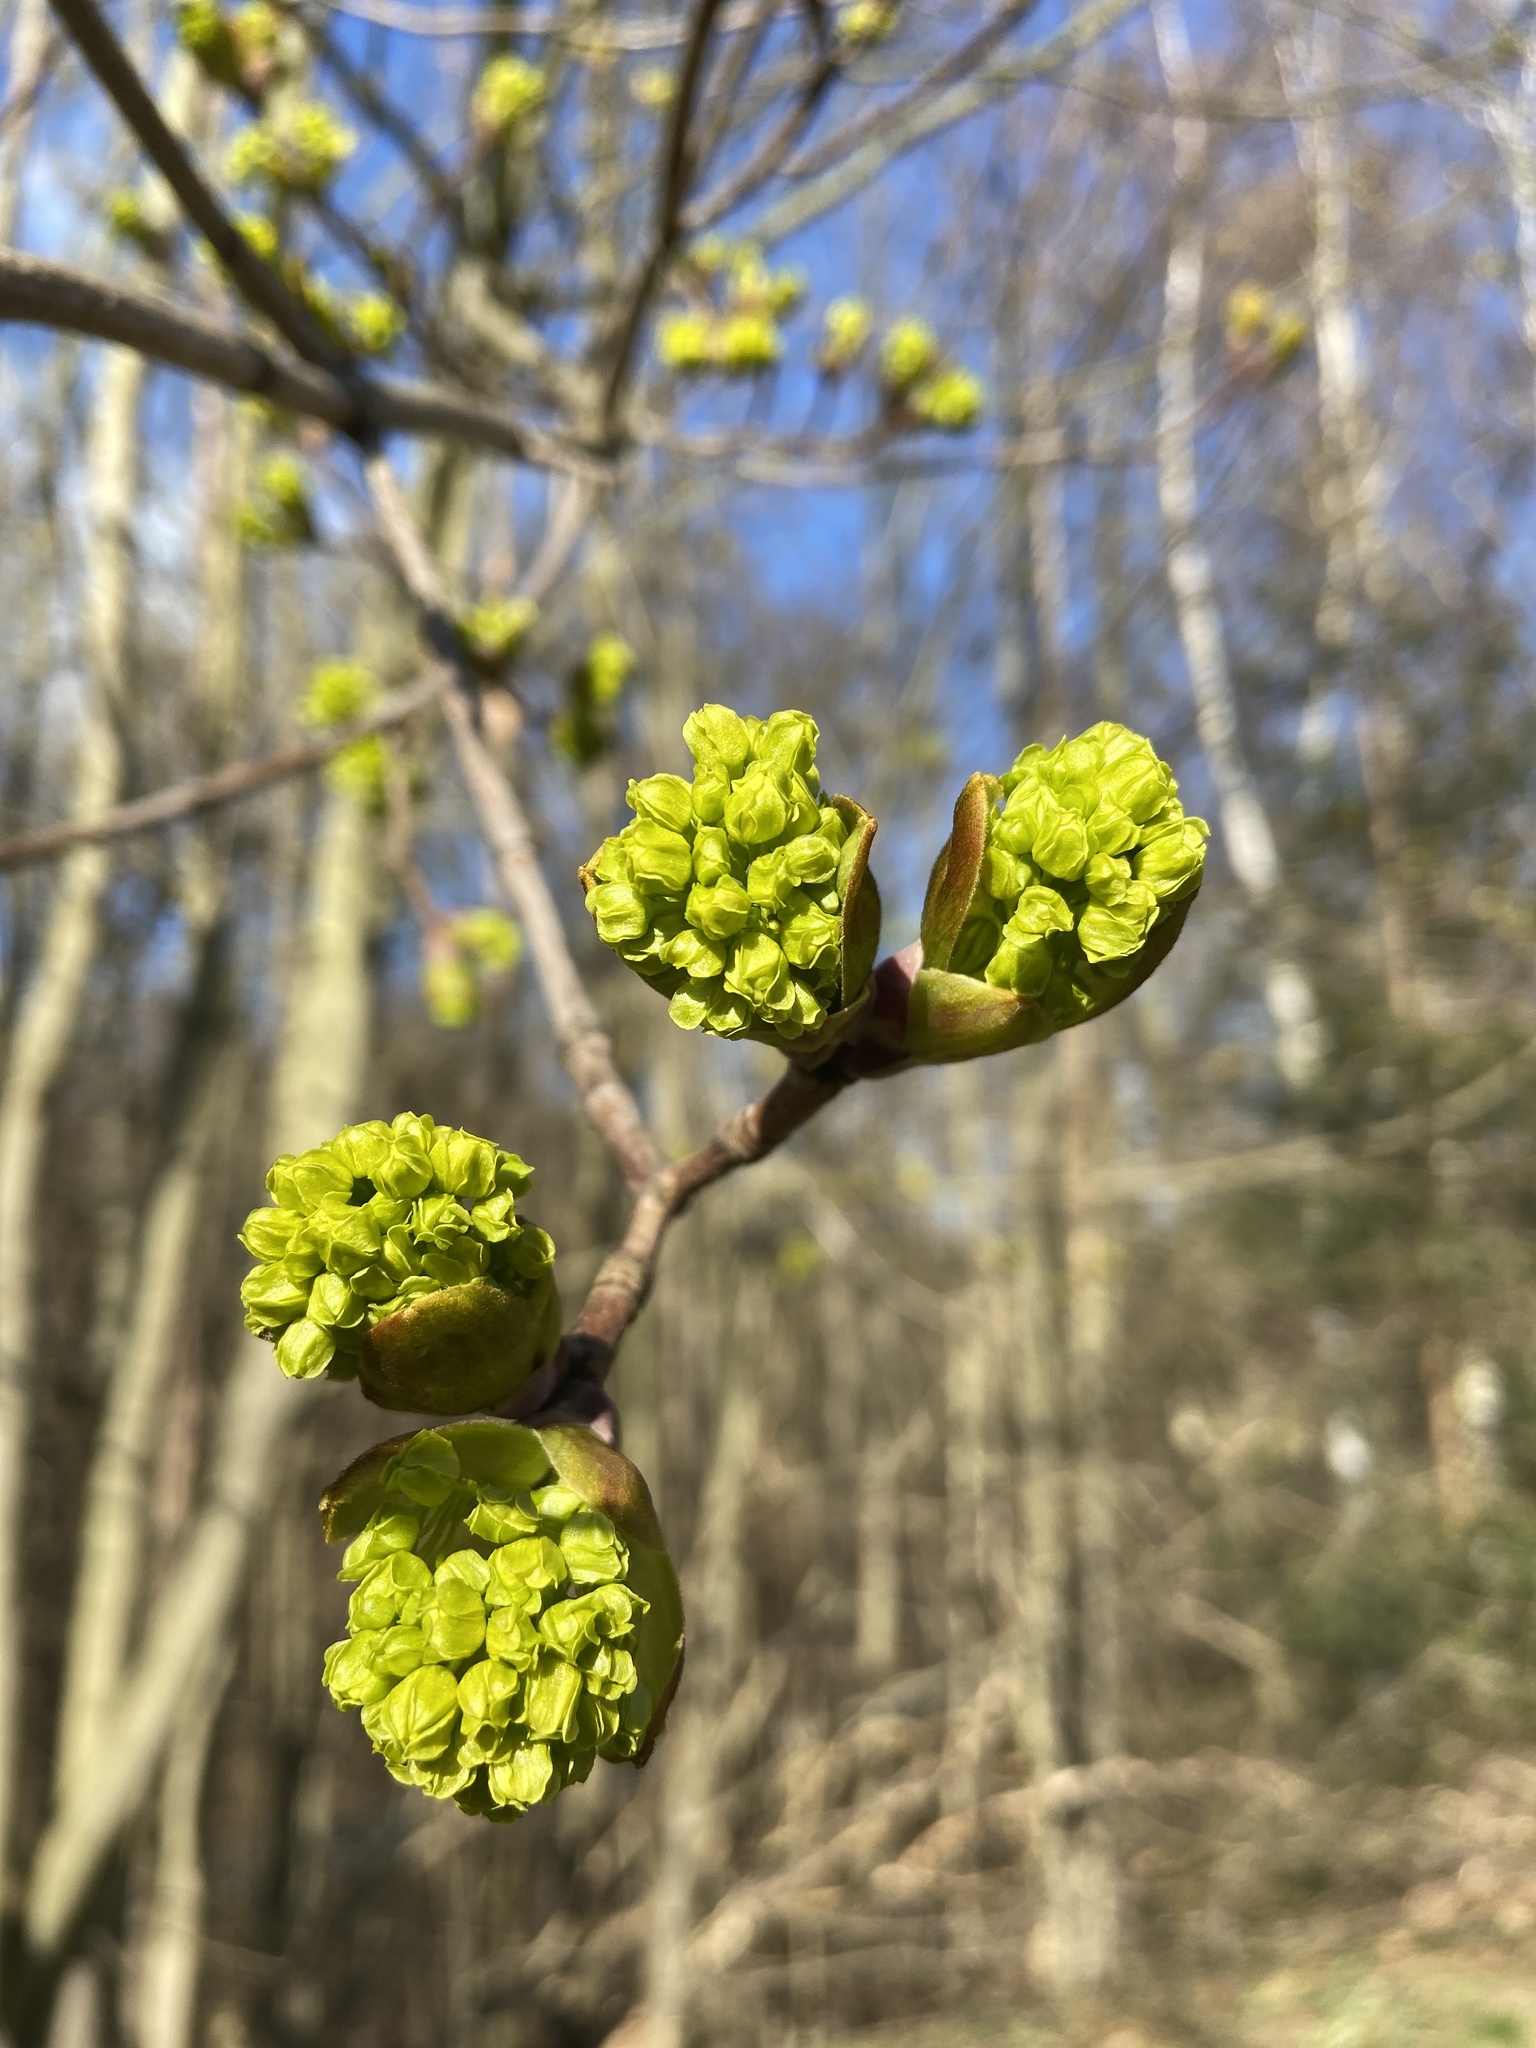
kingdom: Plantae
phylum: Tracheophyta
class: Magnoliopsida
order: Sapindales
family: Sapindaceae
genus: Acer
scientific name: Acer platanoides
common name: Norway maple
